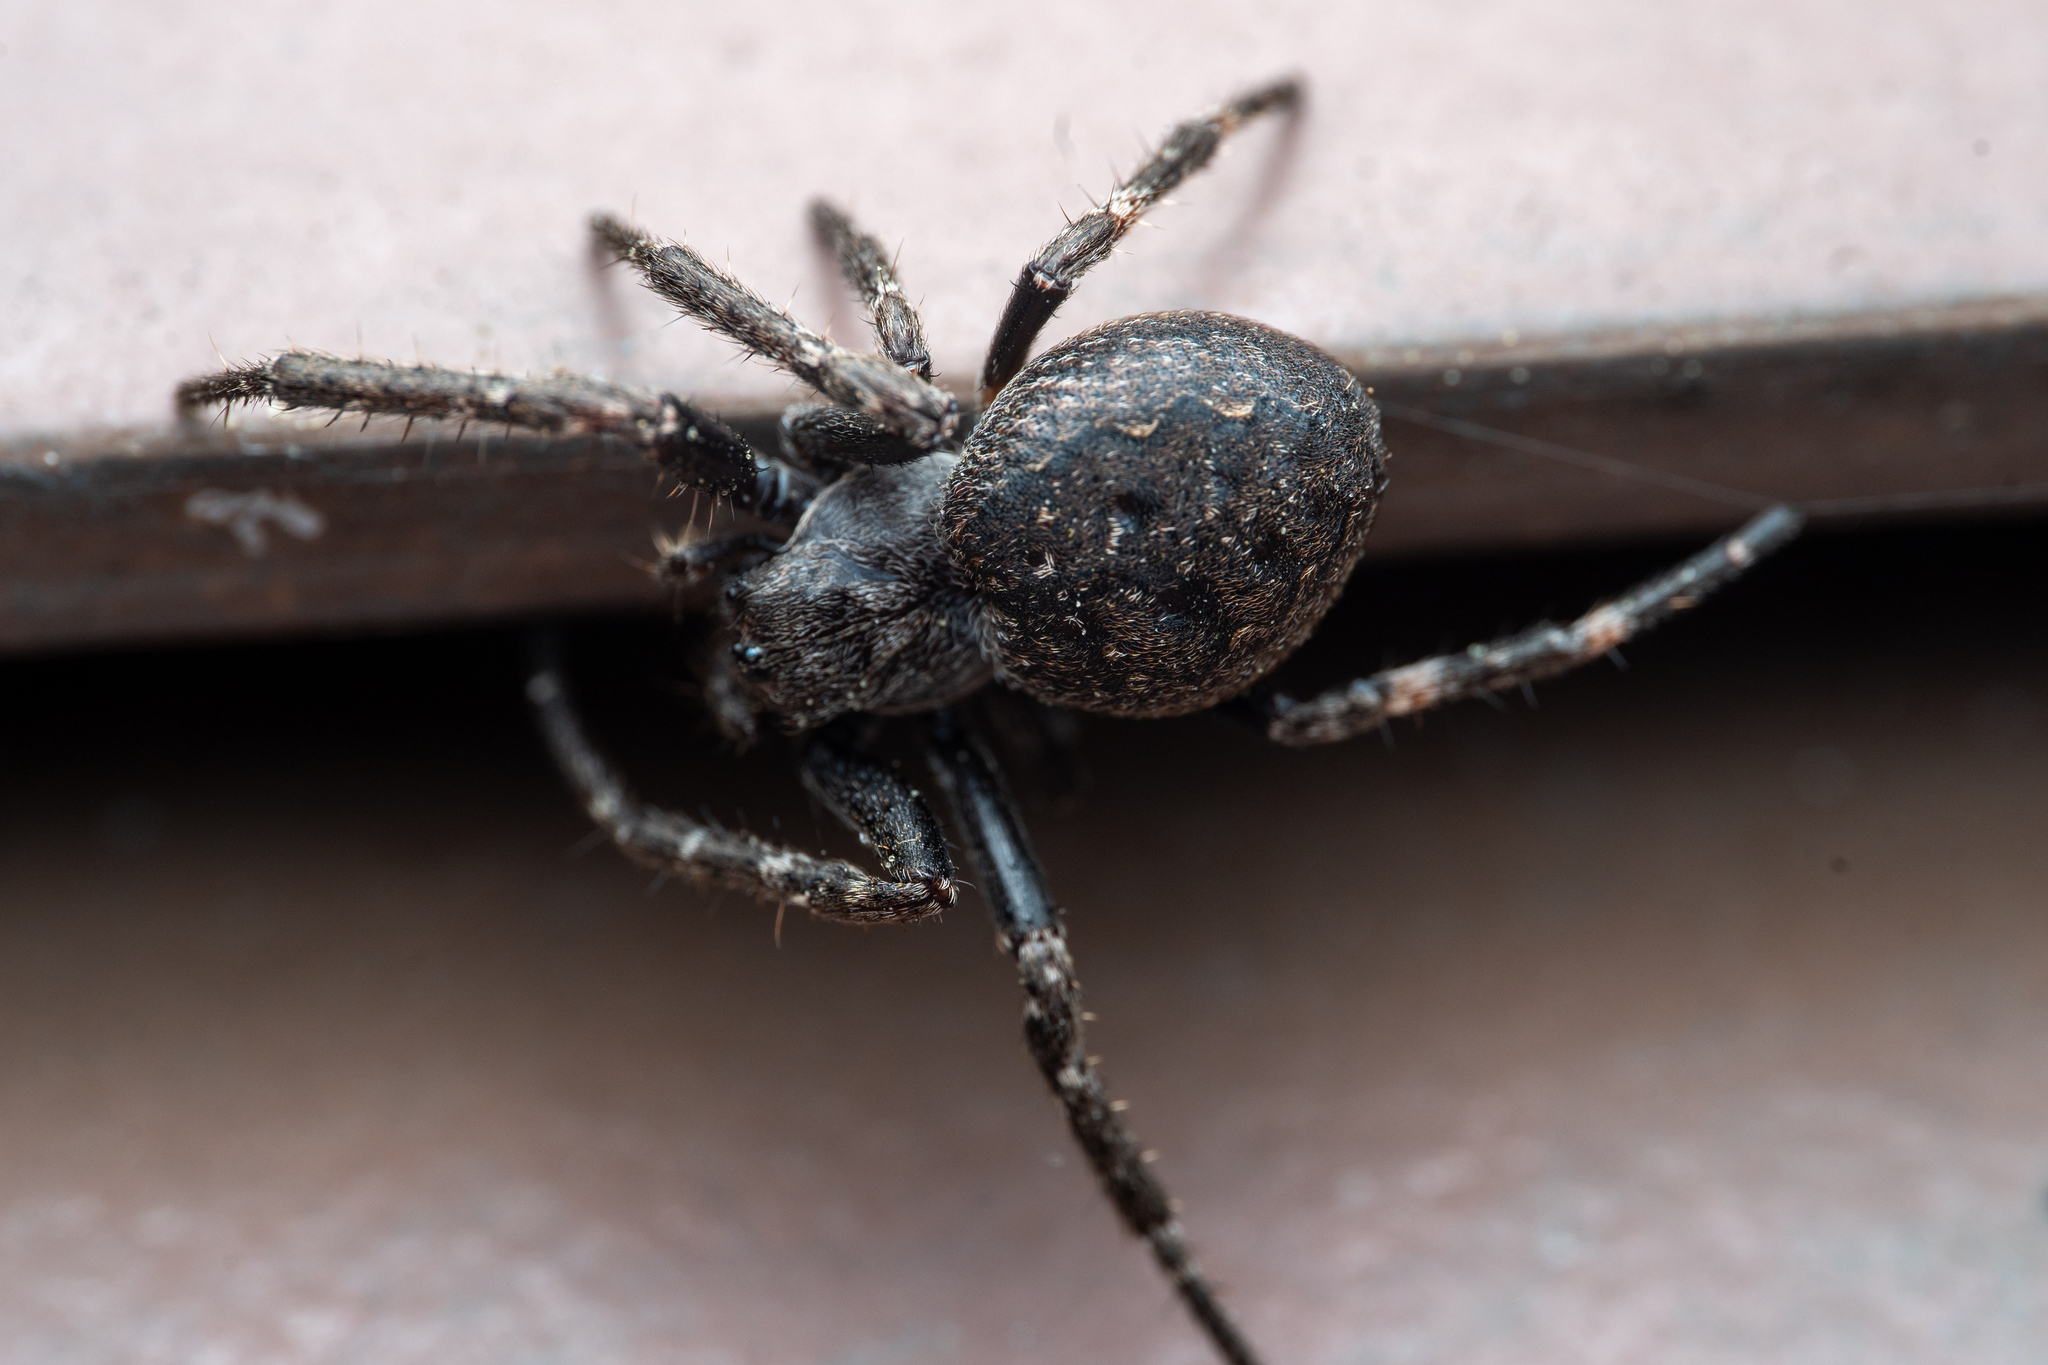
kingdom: Animalia
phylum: Arthropoda
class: Arachnida
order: Araneae
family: Araneidae
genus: Nuctenea
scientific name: Nuctenea umbratica
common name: Toad spider
